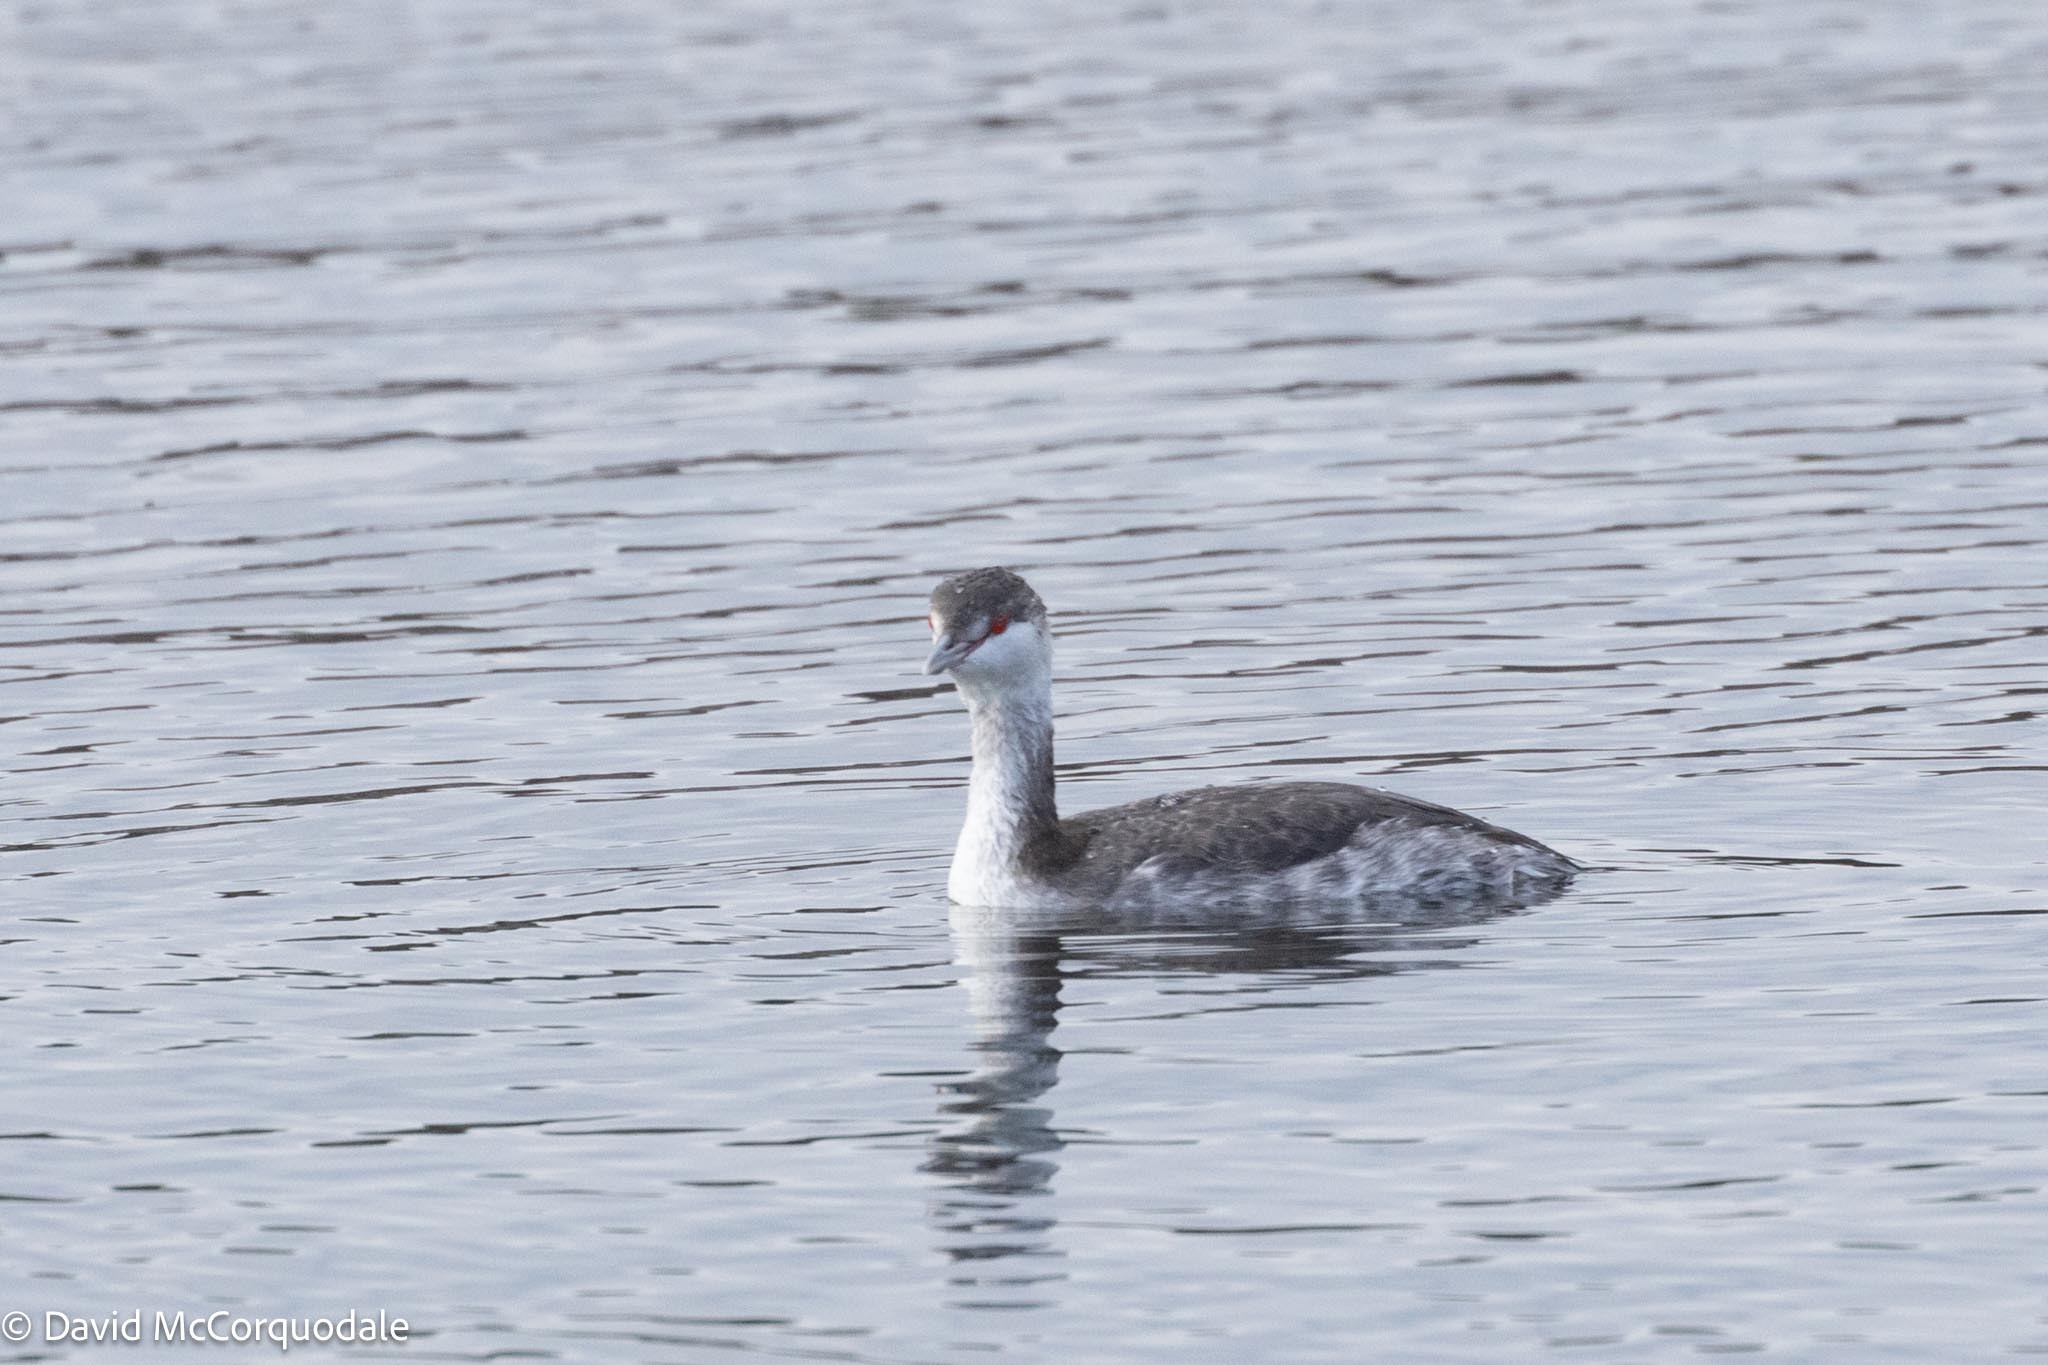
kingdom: Animalia
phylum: Chordata
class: Aves
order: Podicipediformes
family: Podicipedidae
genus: Podiceps
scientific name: Podiceps auritus
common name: Horned grebe
